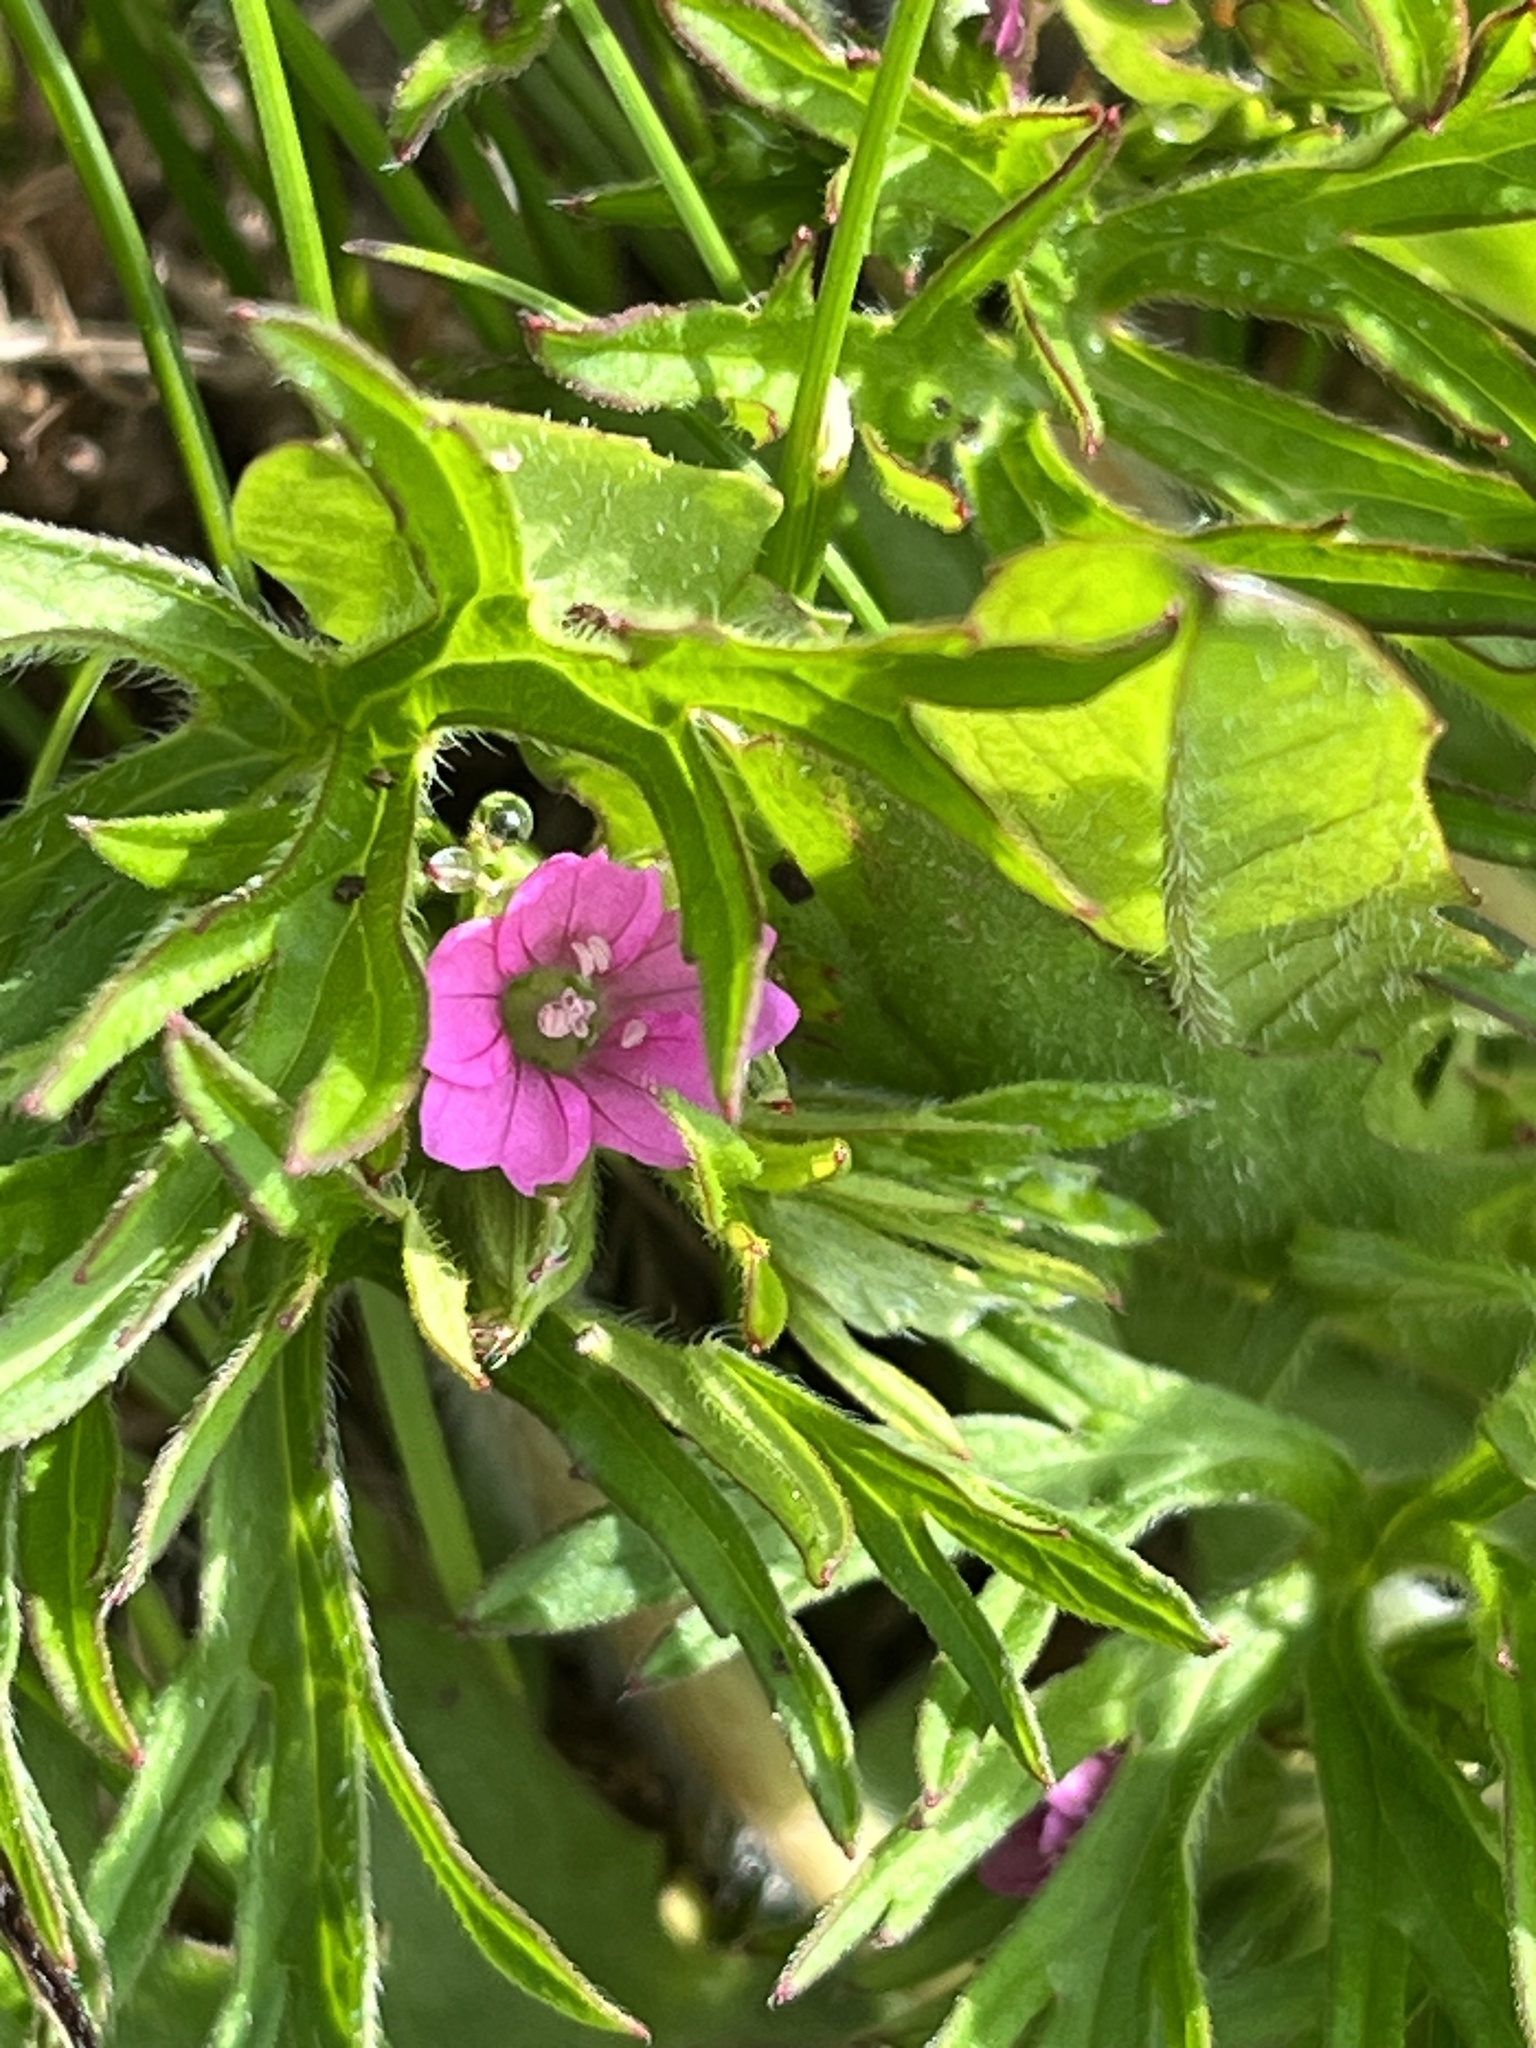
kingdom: Plantae
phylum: Tracheophyta
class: Magnoliopsida
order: Geraniales
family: Geraniaceae
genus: Geranium
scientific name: Geranium dissectum
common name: Cut-leaved crane's-bill
